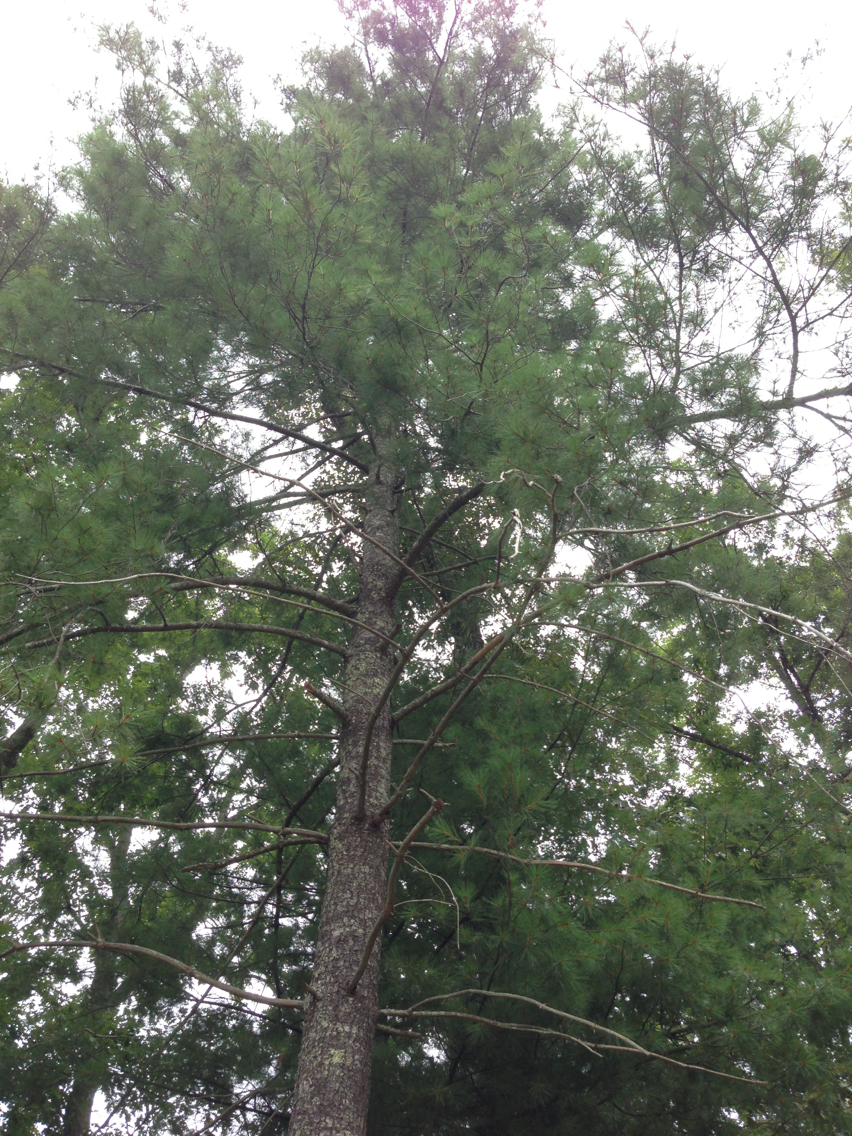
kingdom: Plantae
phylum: Tracheophyta
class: Pinopsida
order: Pinales
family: Pinaceae
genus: Pinus
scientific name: Pinus strobus
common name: Weymouth pine
